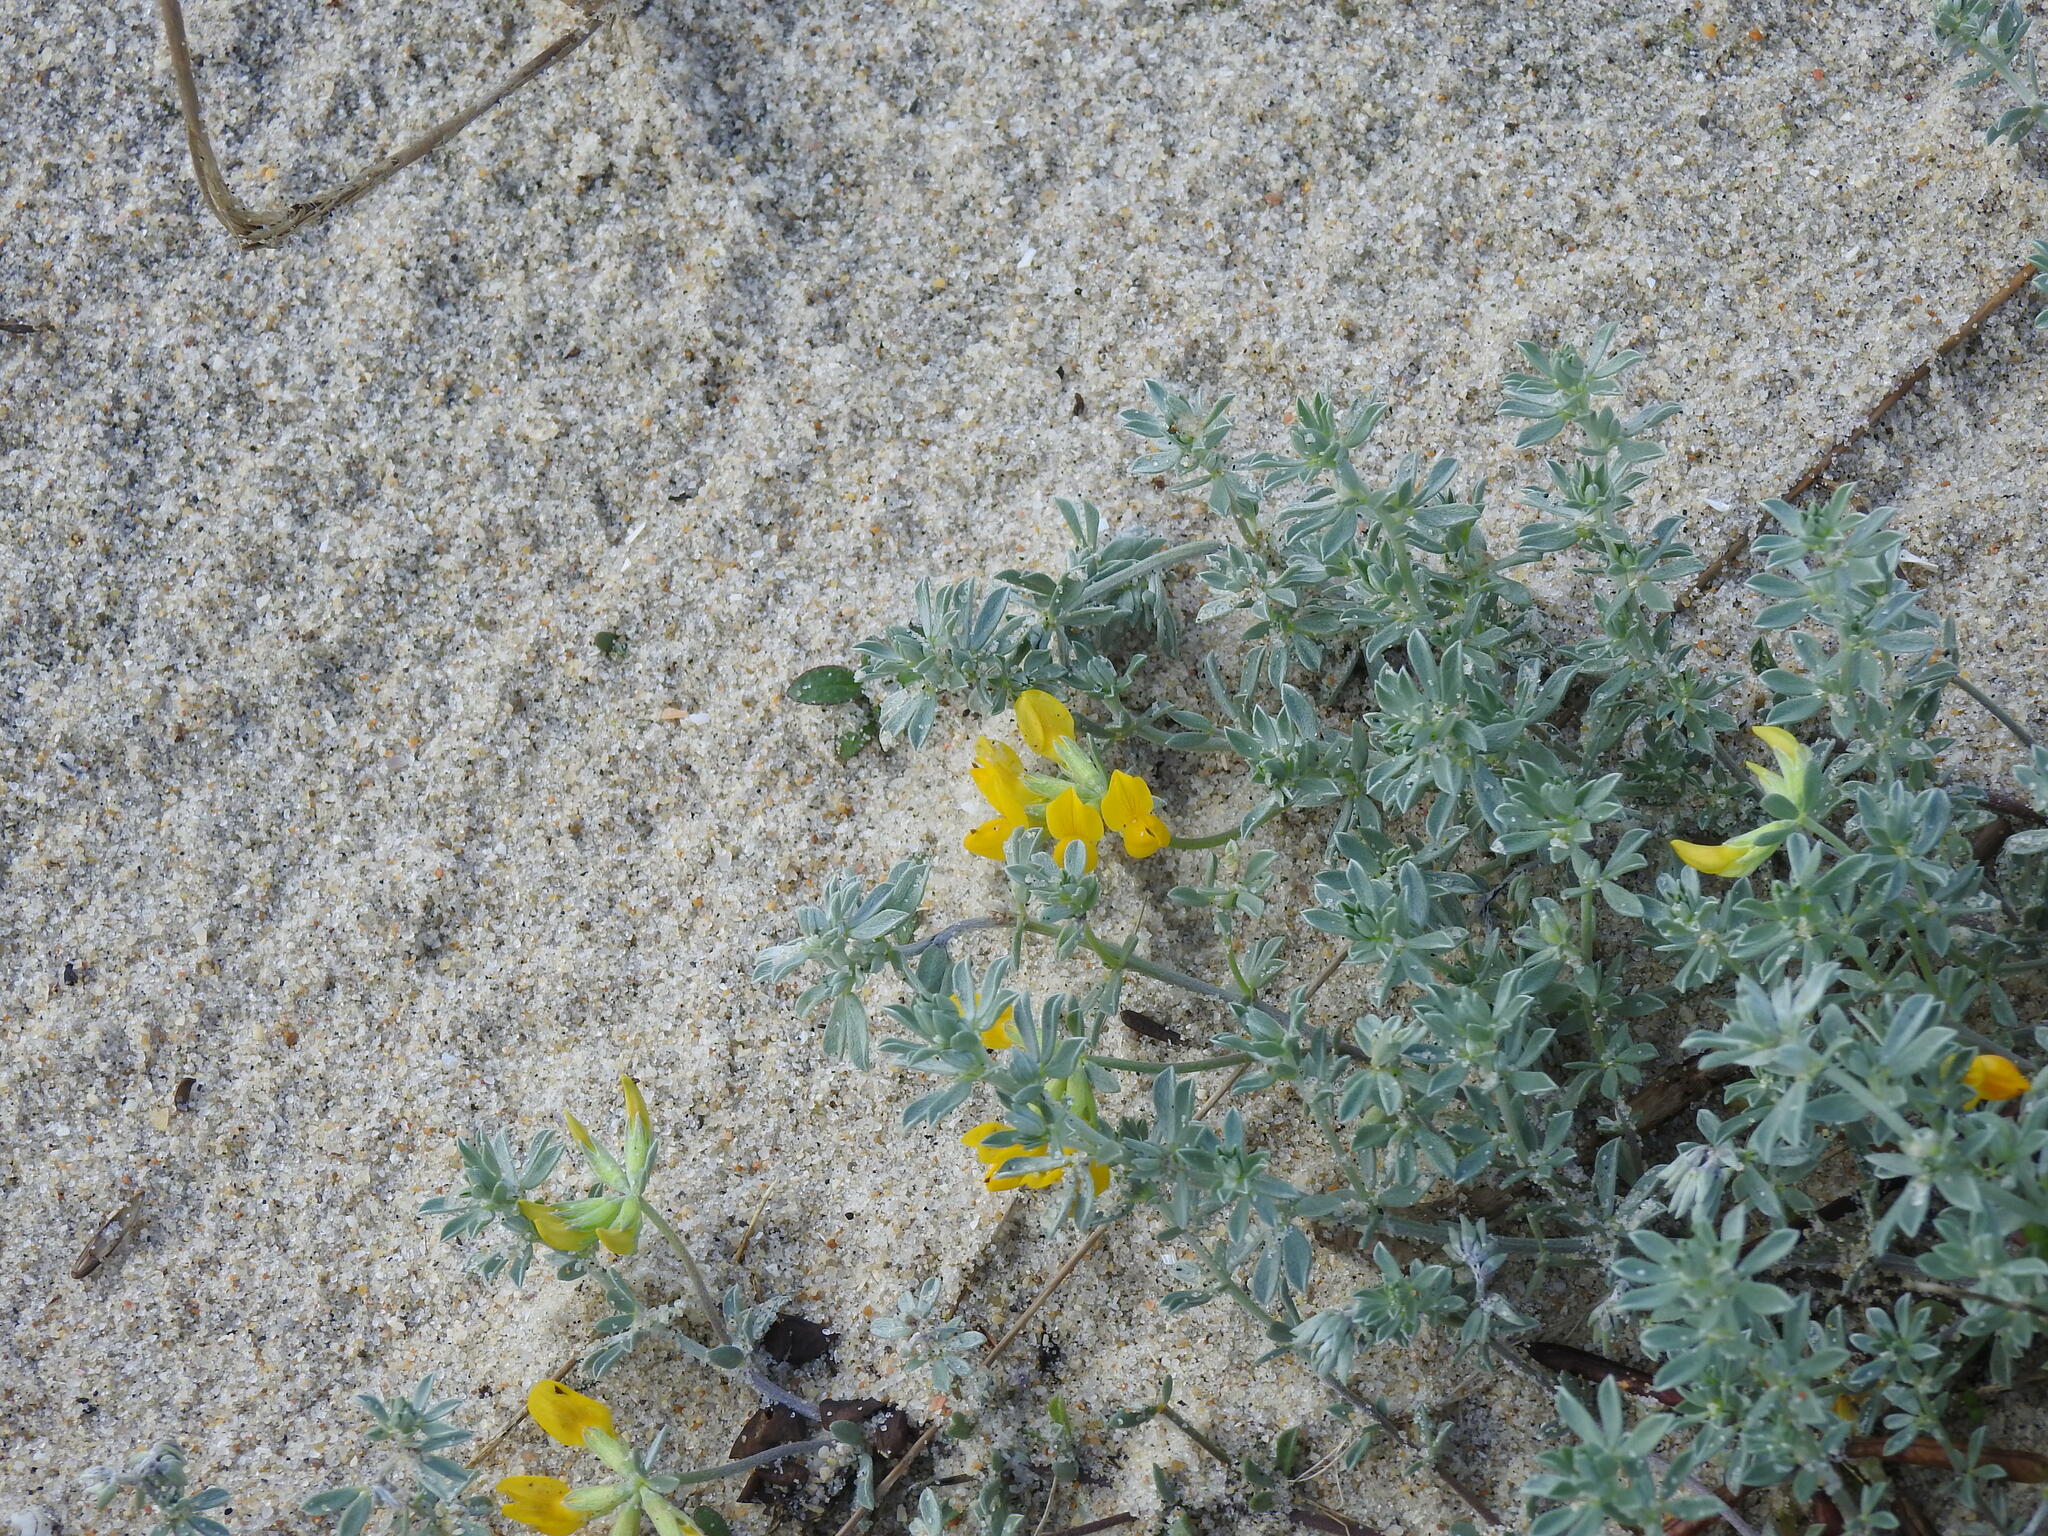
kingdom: Plantae
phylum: Tracheophyta
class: Magnoliopsida
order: Fabales
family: Fabaceae
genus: Lotus
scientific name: Lotus creticus
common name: Cretan bird's-foot trefoil
